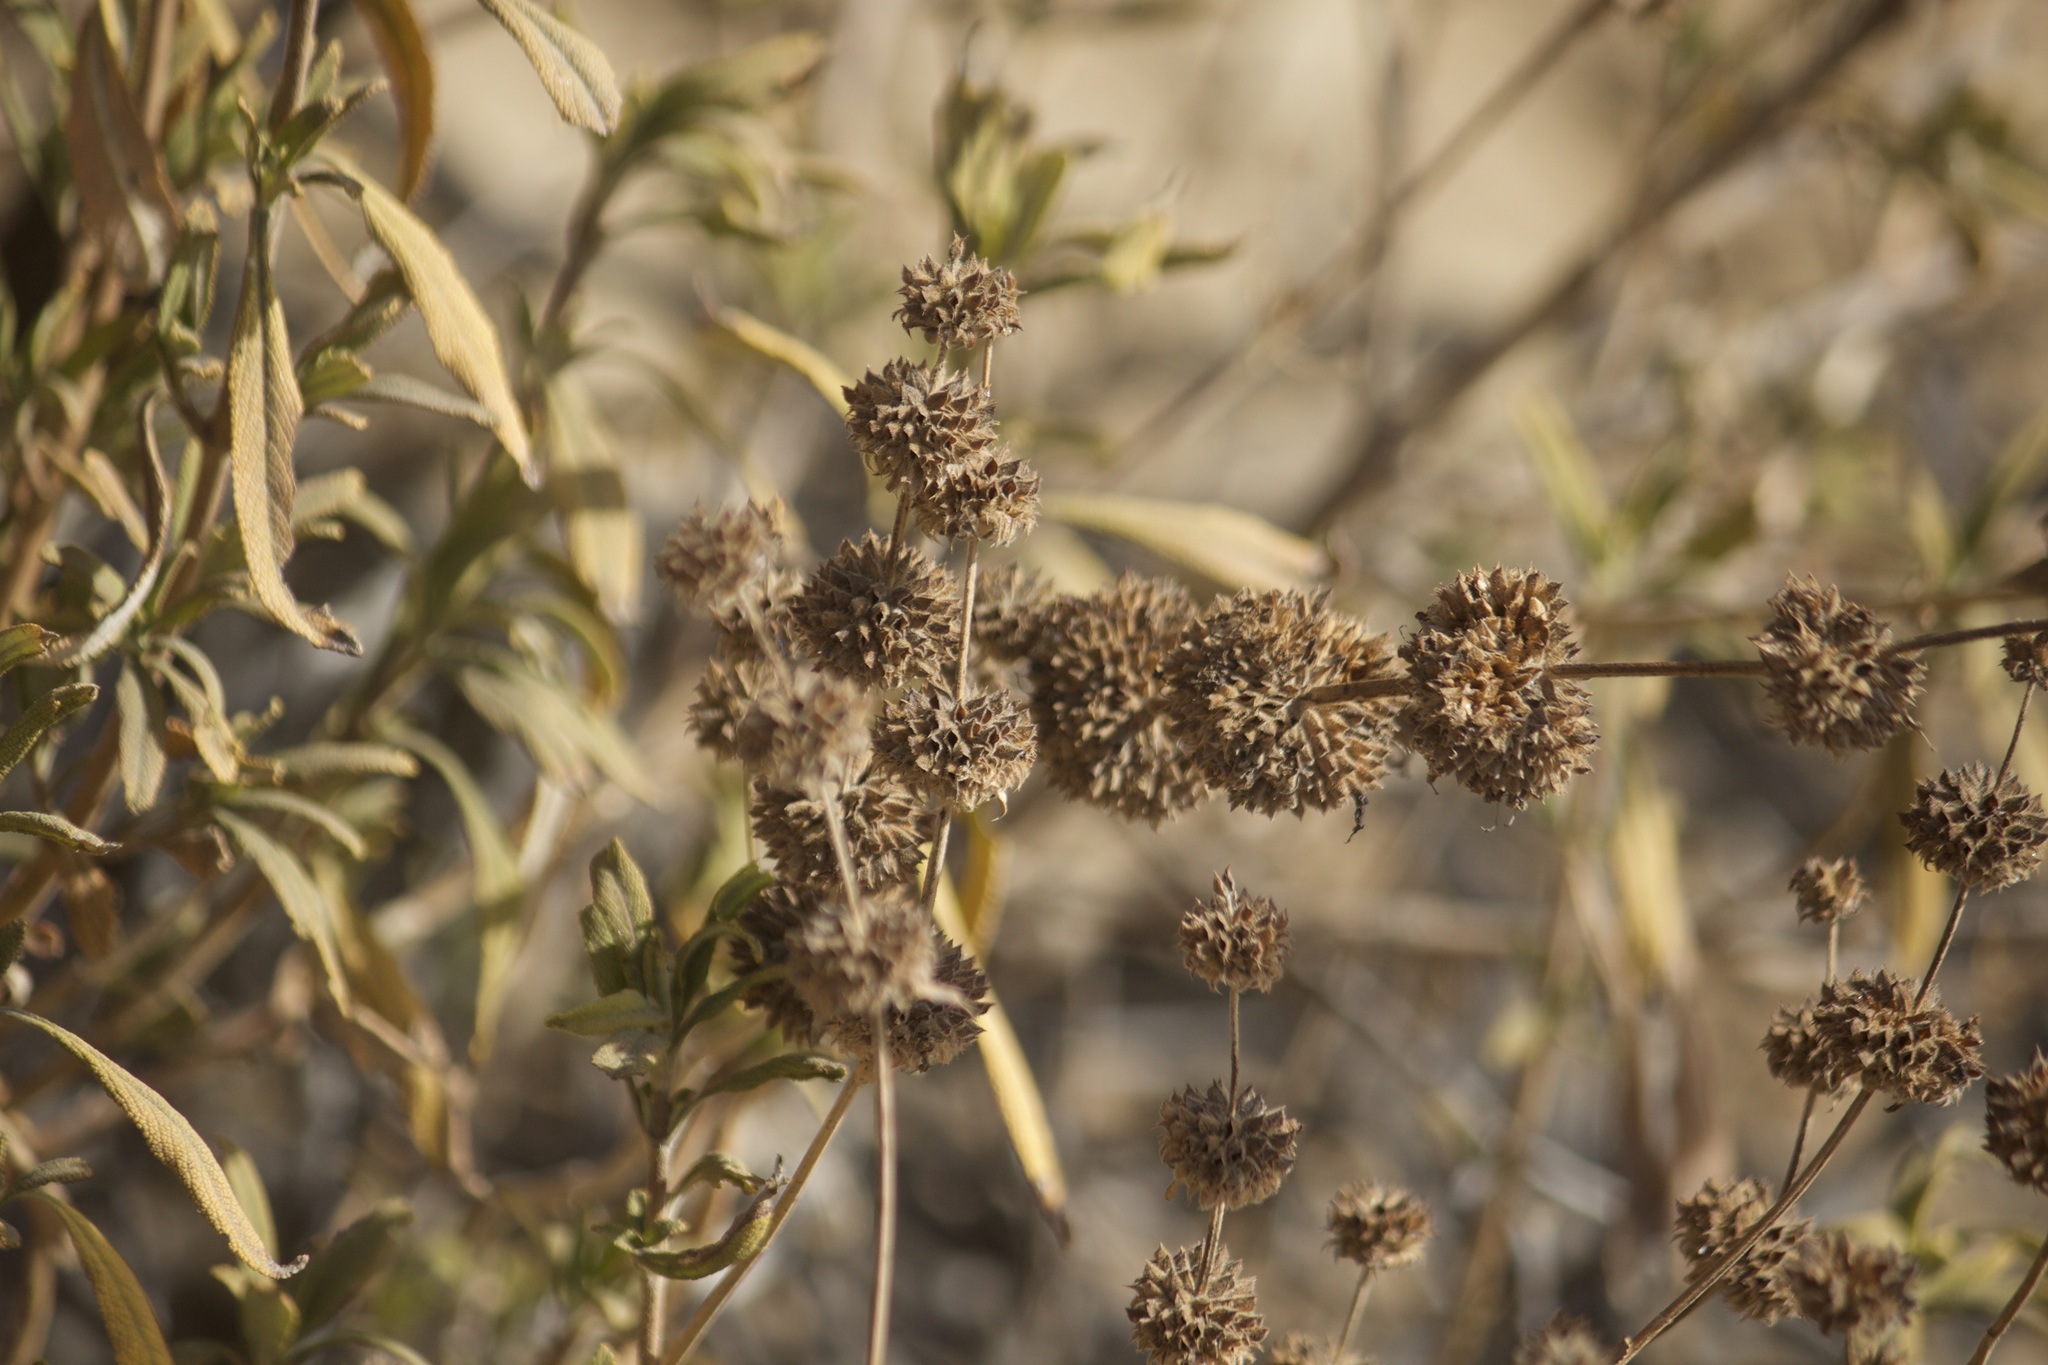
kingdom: Plantae
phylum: Tracheophyta
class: Magnoliopsida
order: Lamiales
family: Lamiaceae
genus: Salvia
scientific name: Salvia mellifera
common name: Black sage
